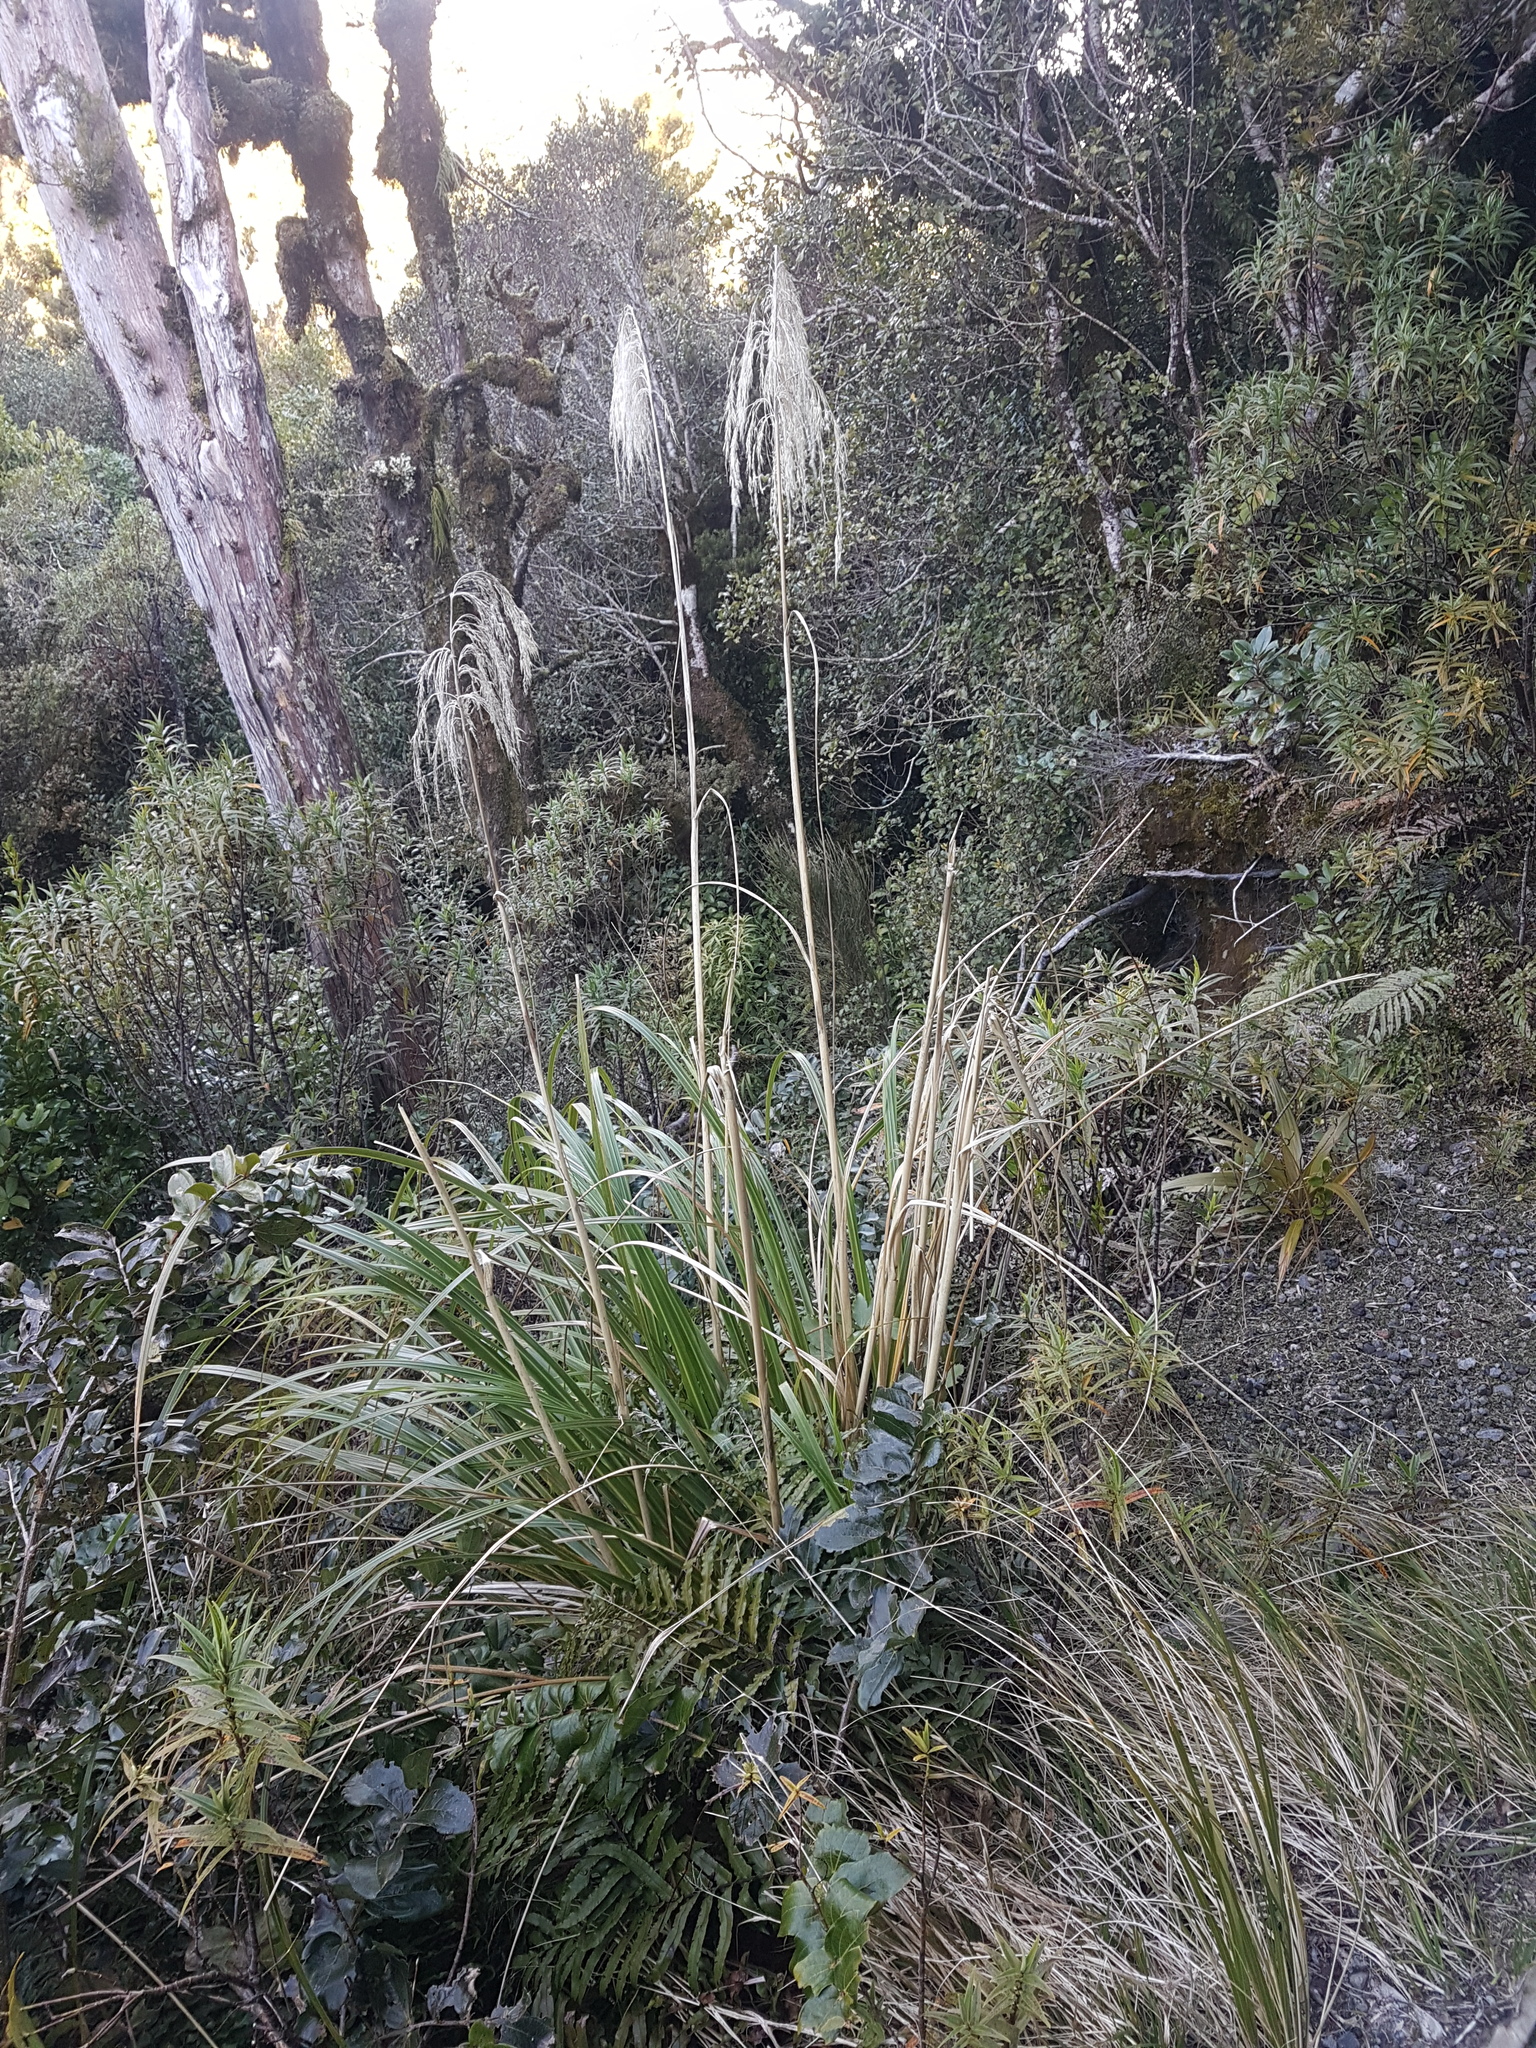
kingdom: Plantae
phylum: Tracheophyta
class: Liliopsida
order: Poales
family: Poaceae
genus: Austroderia
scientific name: Austroderia fulvida
